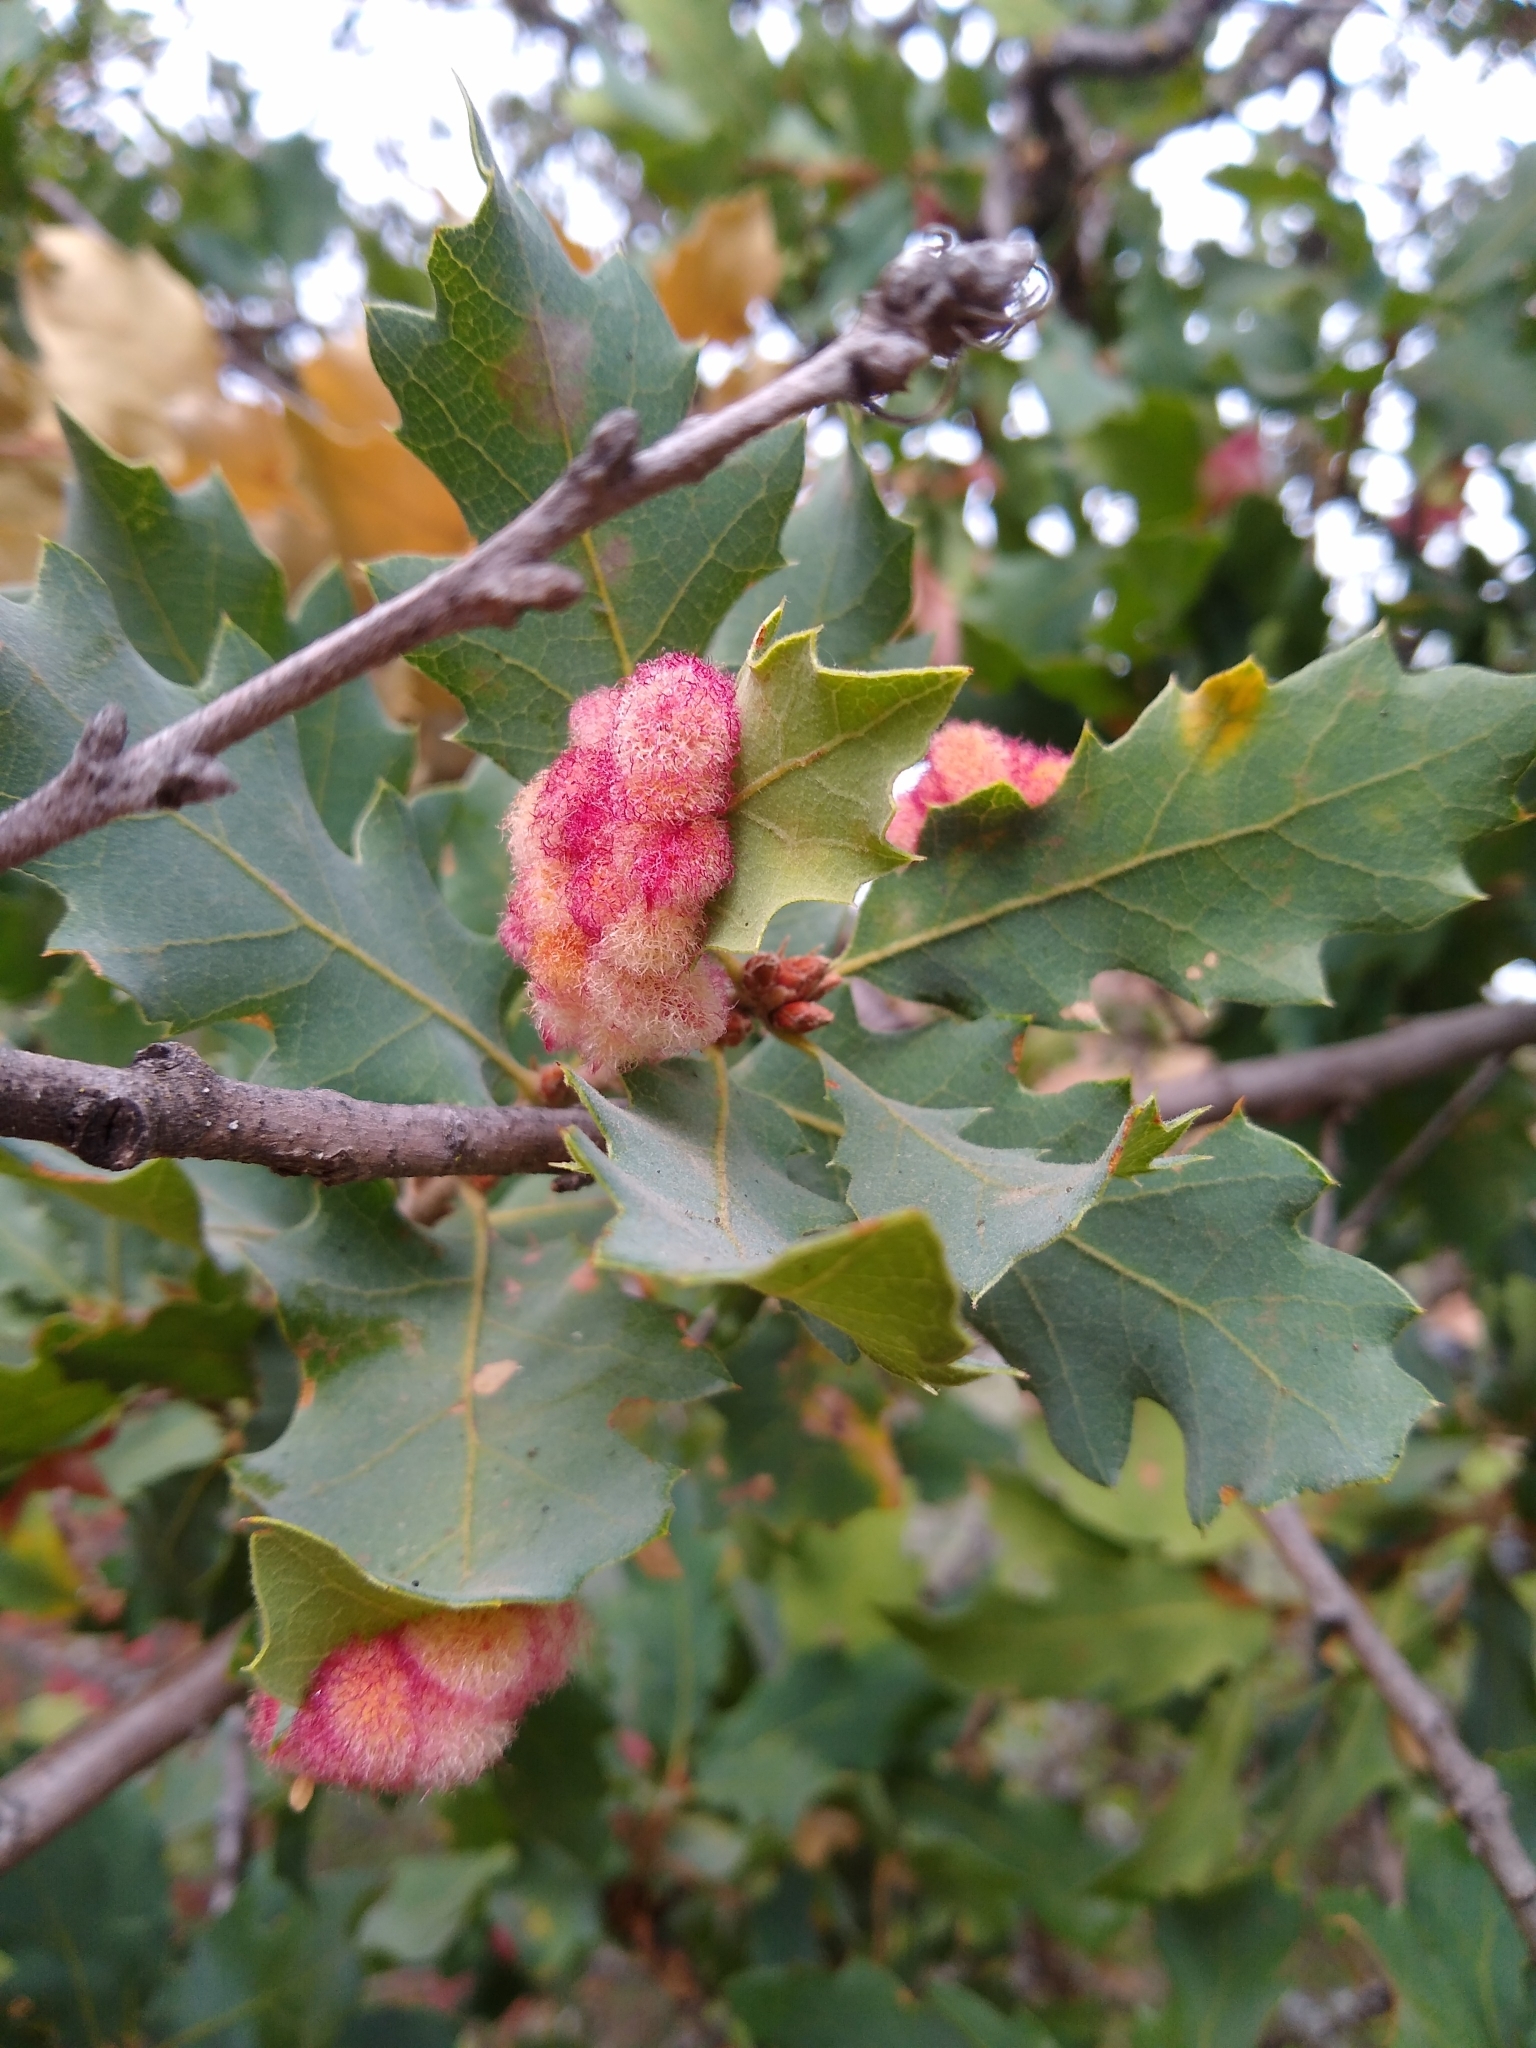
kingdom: Animalia
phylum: Arthropoda
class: Insecta
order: Hymenoptera
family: Cynipidae
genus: Andricus
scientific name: Andricus
